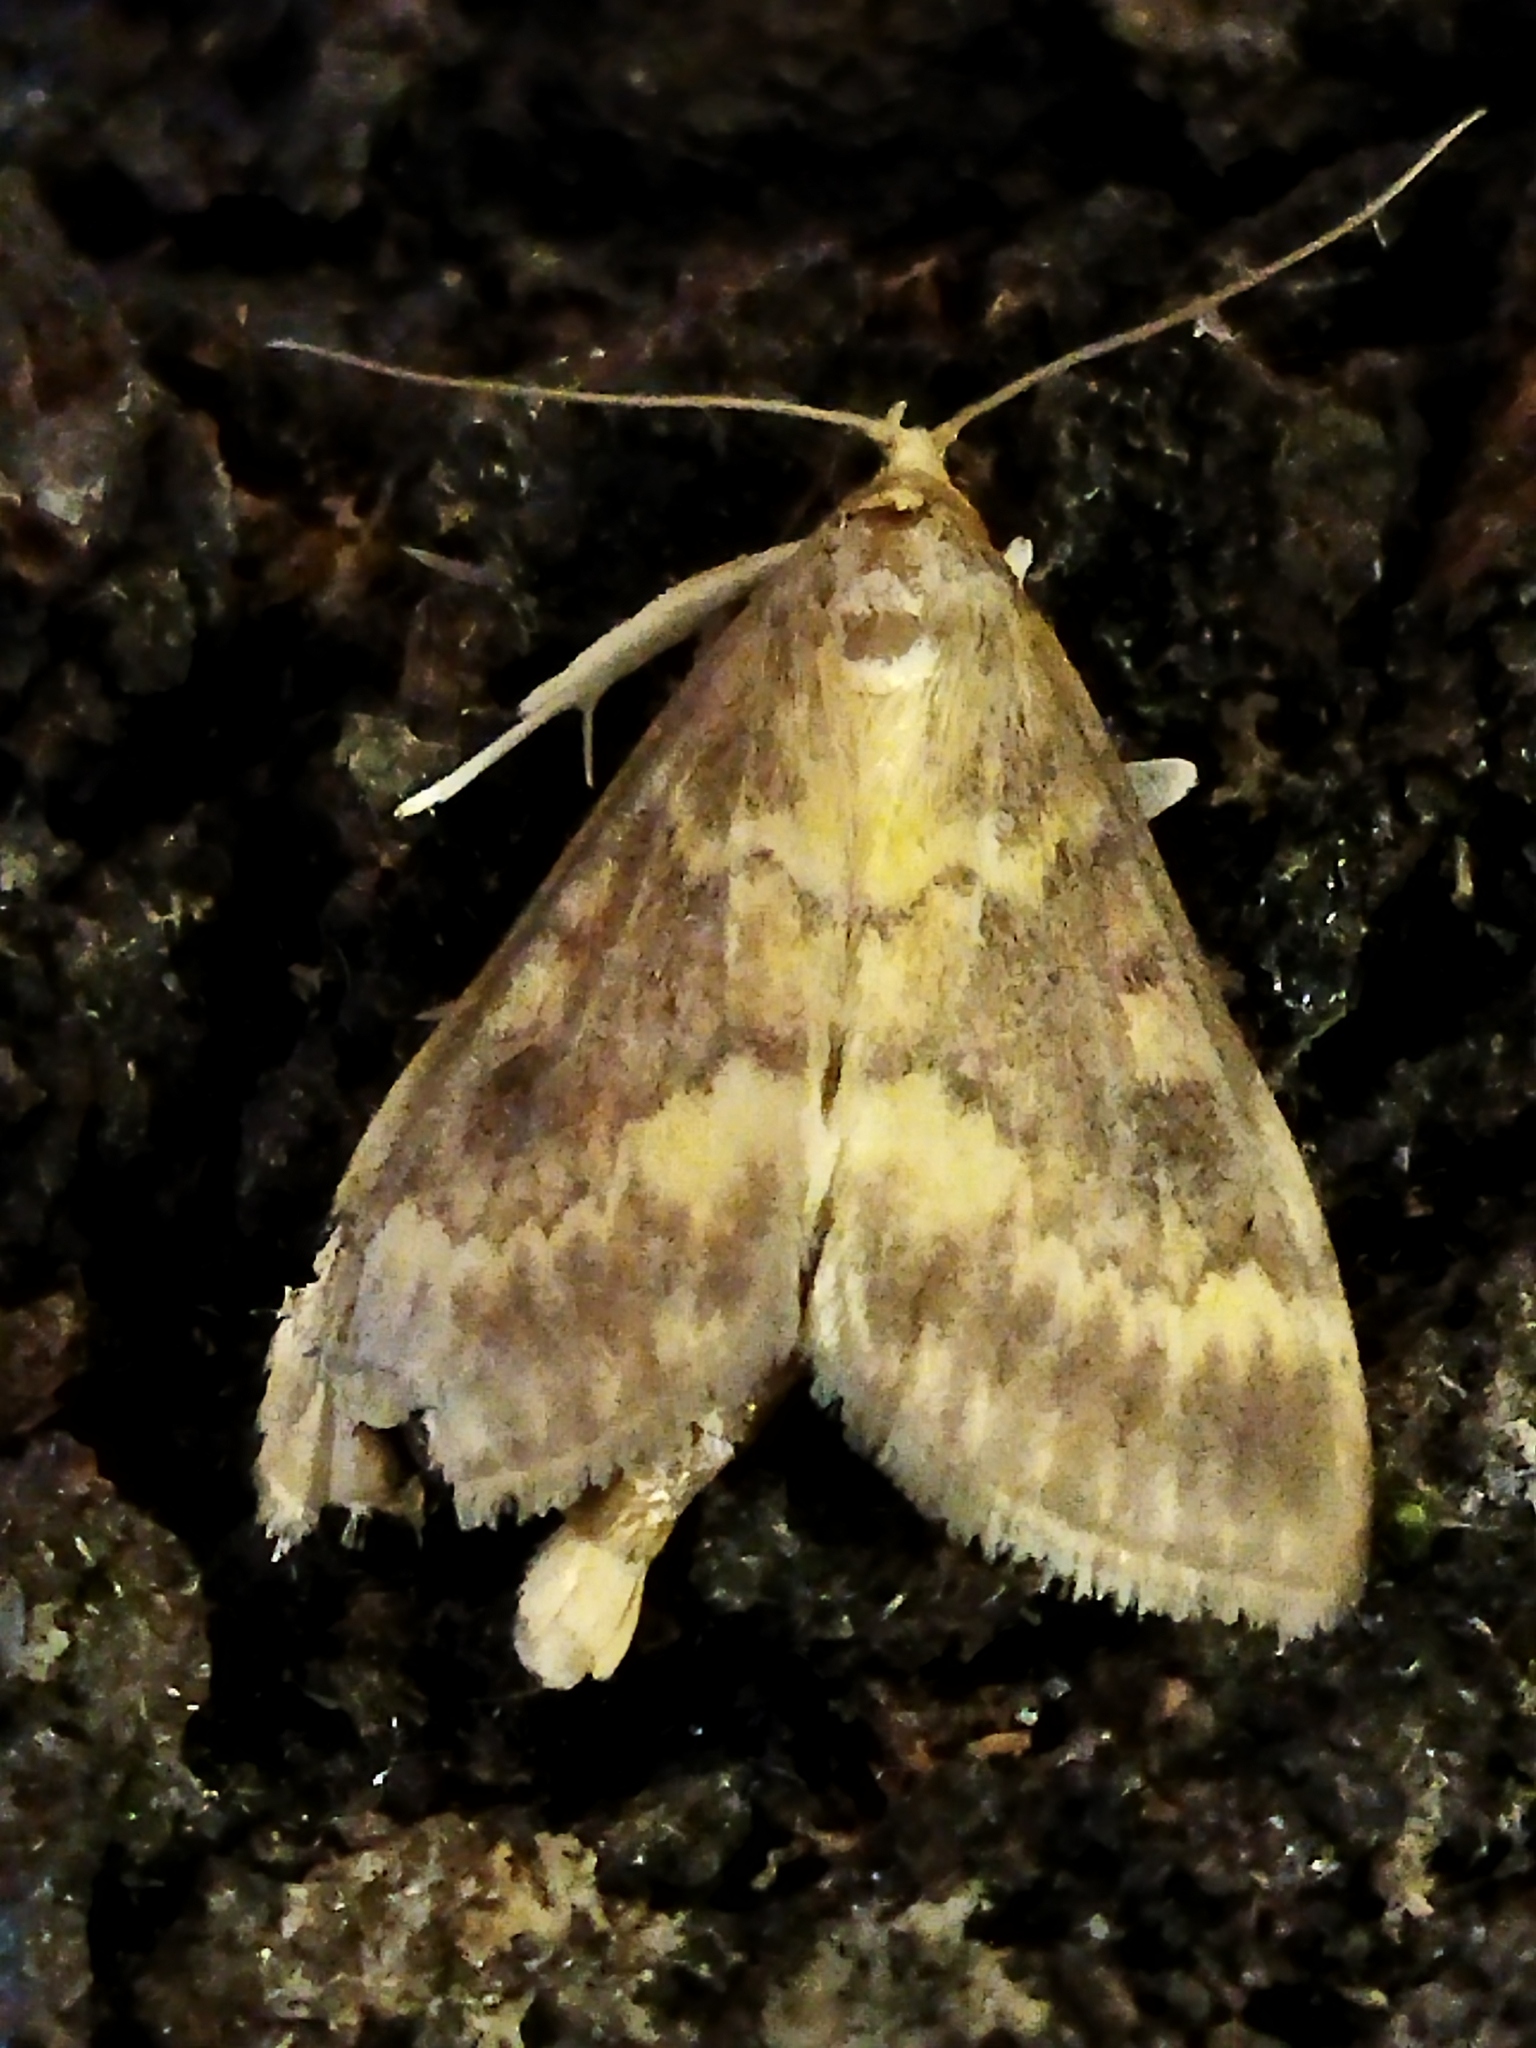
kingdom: Animalia
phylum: Arthropoda
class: Insecta
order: Lepidoptera
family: Crambidae
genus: Ostrinia
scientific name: Ostrinia nubilalis
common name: European corn borer
